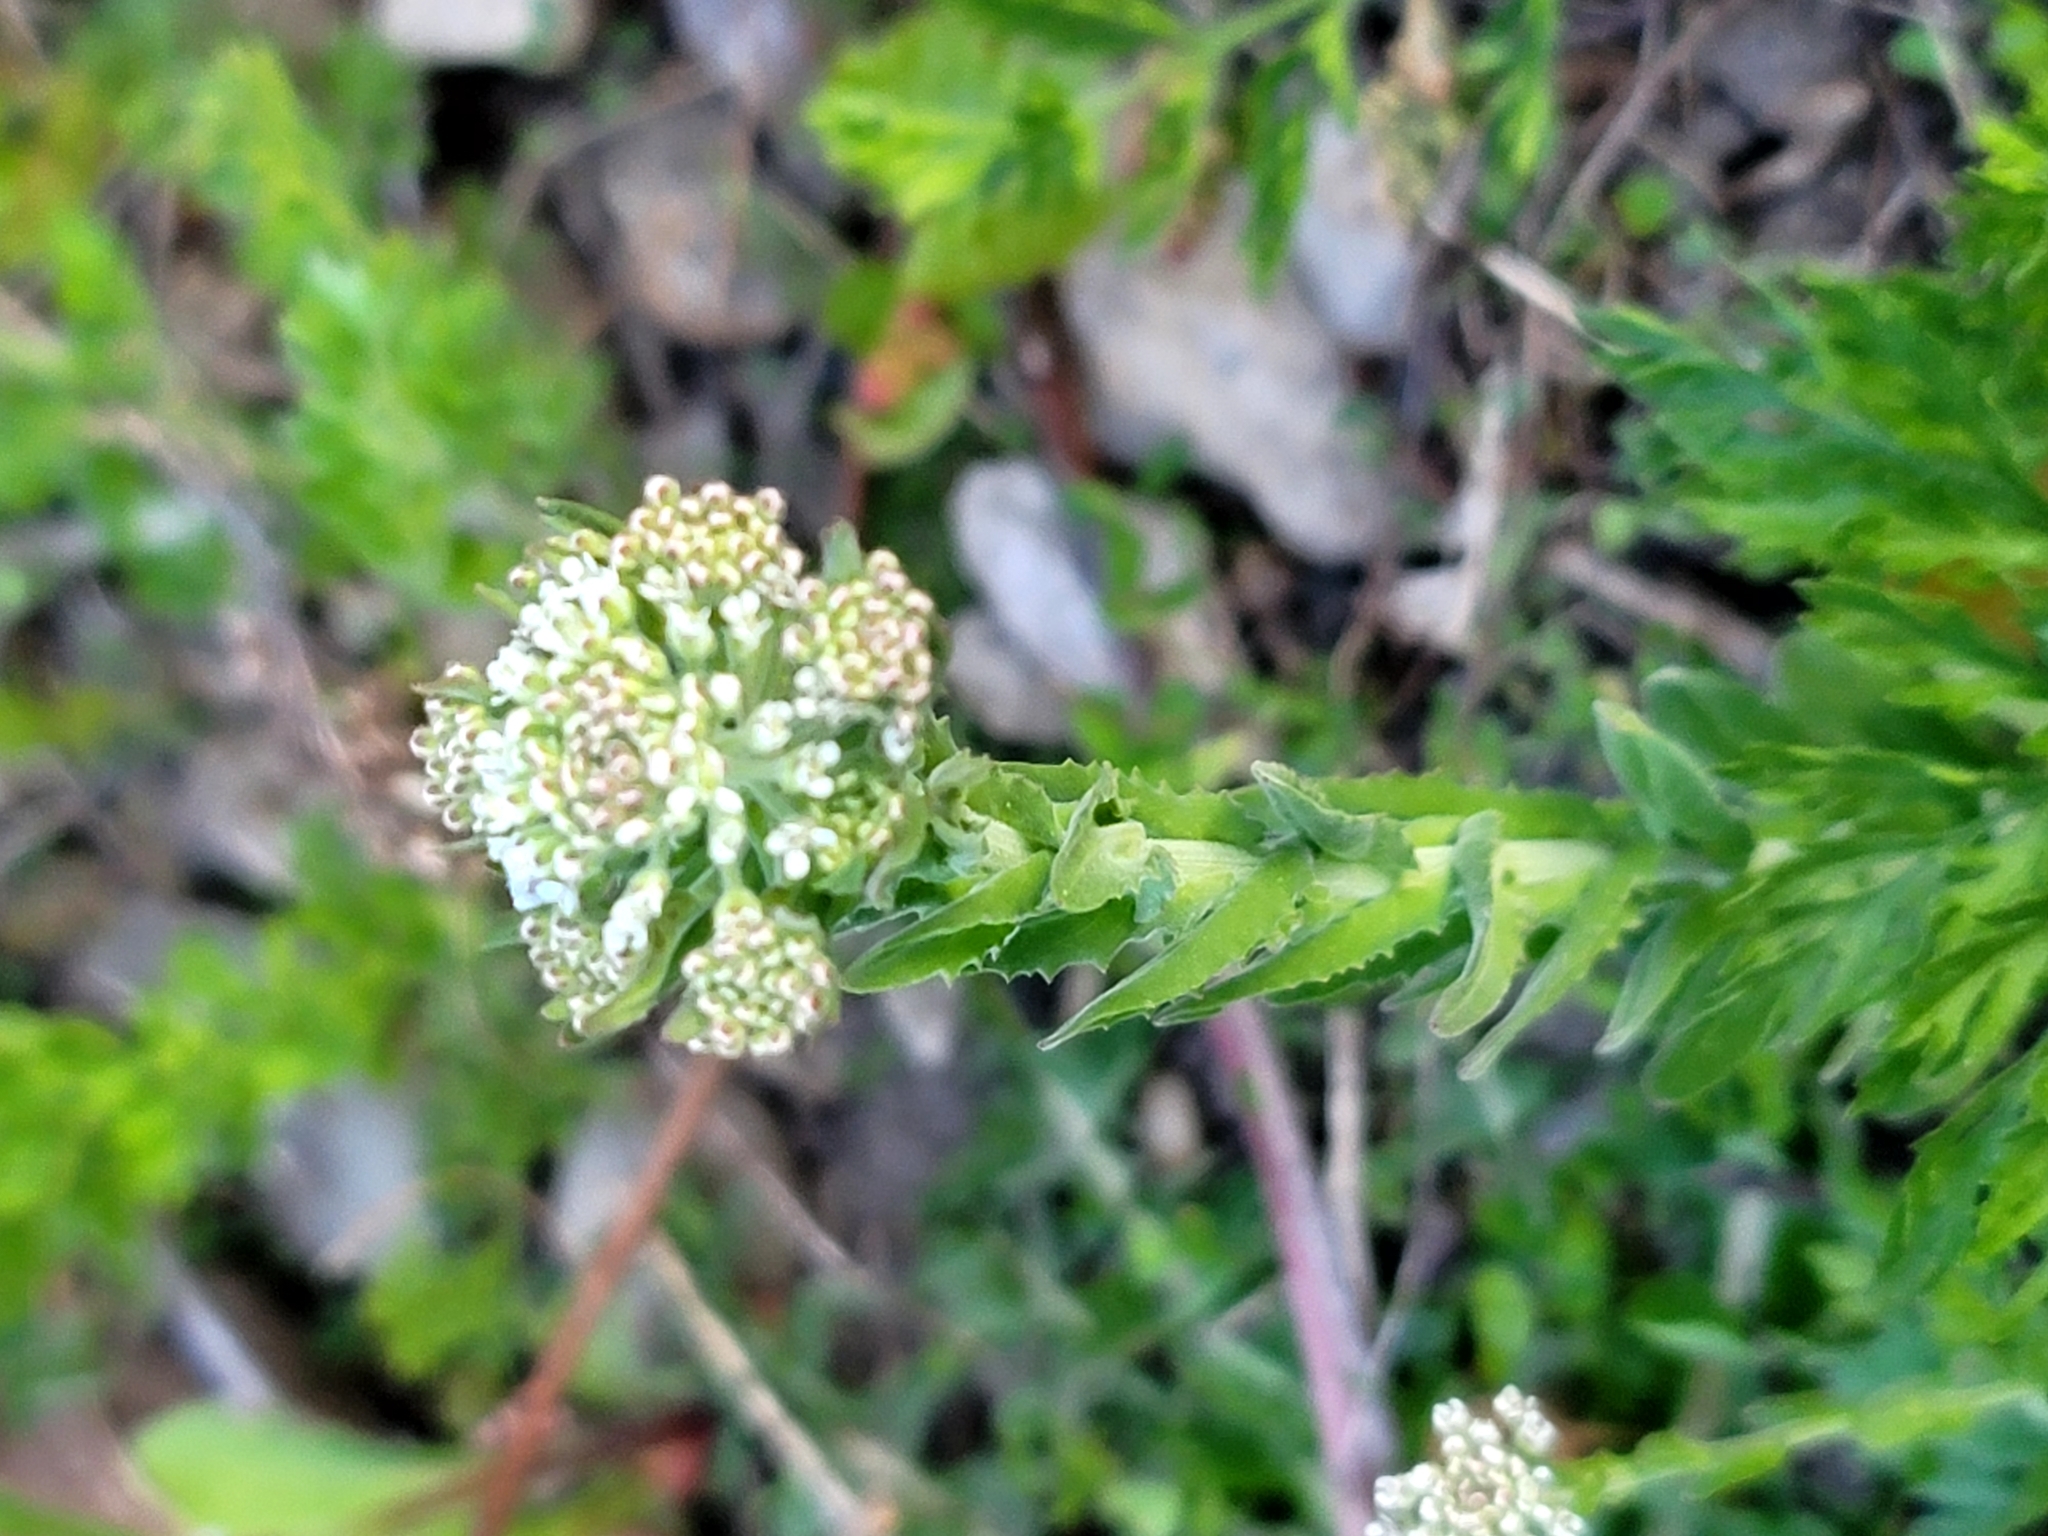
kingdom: Plantae
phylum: Tracheophyta
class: Magnoliopsida
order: Brassicales
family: Brassicaceae
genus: Lepidium
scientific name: Lepidium campestre
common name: Field pepperwort
